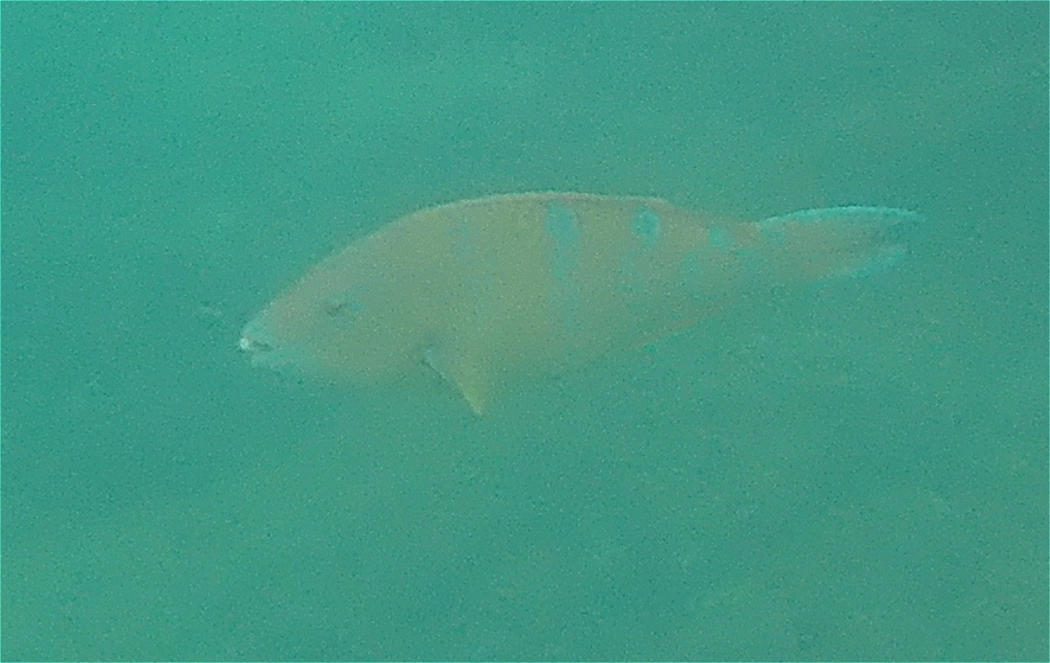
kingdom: Animalia
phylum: Chordata
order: Perciformes
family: Scaridae
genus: Scarus
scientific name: Scarus ghobban
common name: Blue-barred parrotfish
